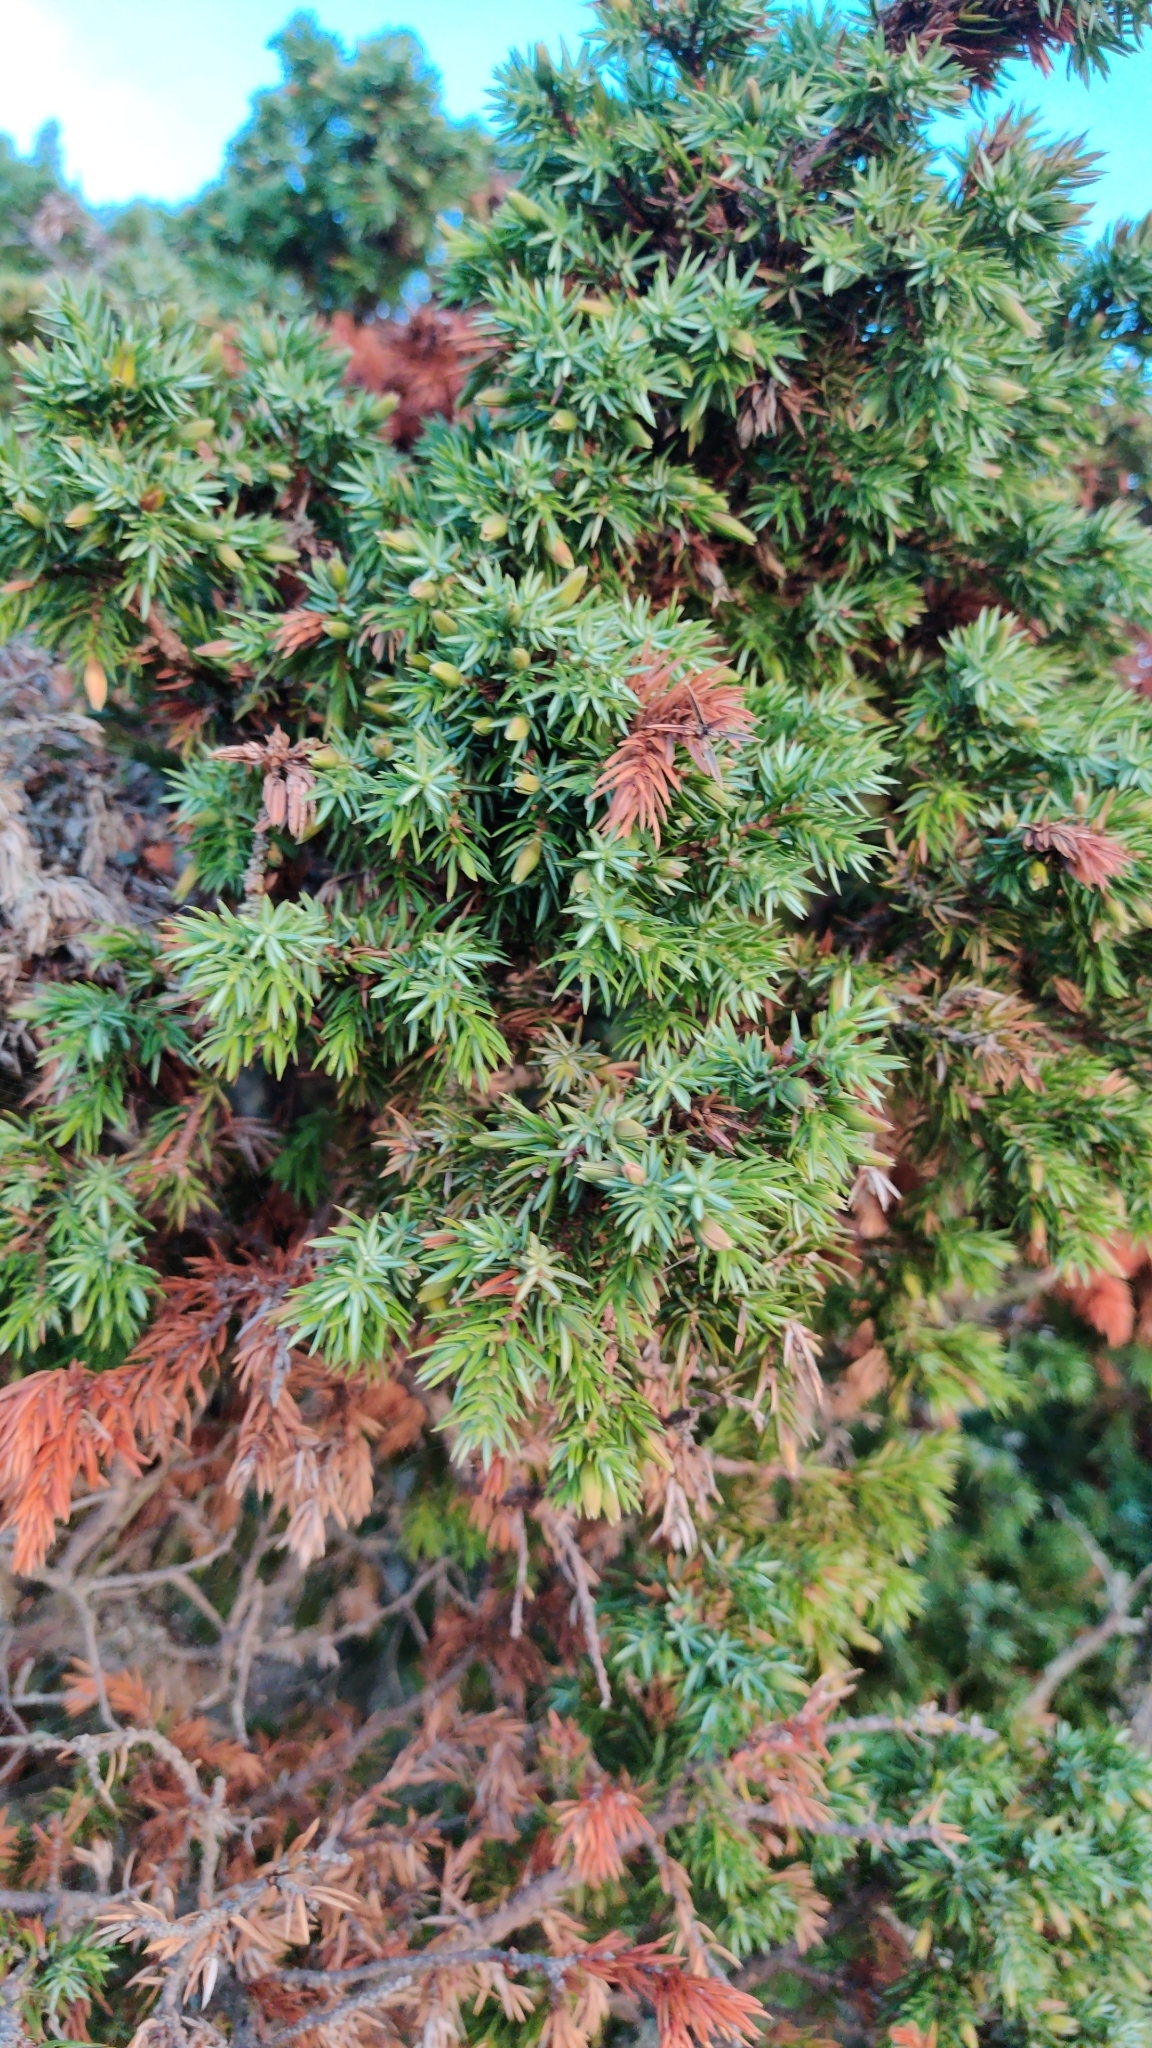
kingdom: Plantae
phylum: Tracheophyta
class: Pinopsida
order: Pinales
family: Cupressaceae
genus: Juniperus
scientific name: Juniperus communis
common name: Common juniper
